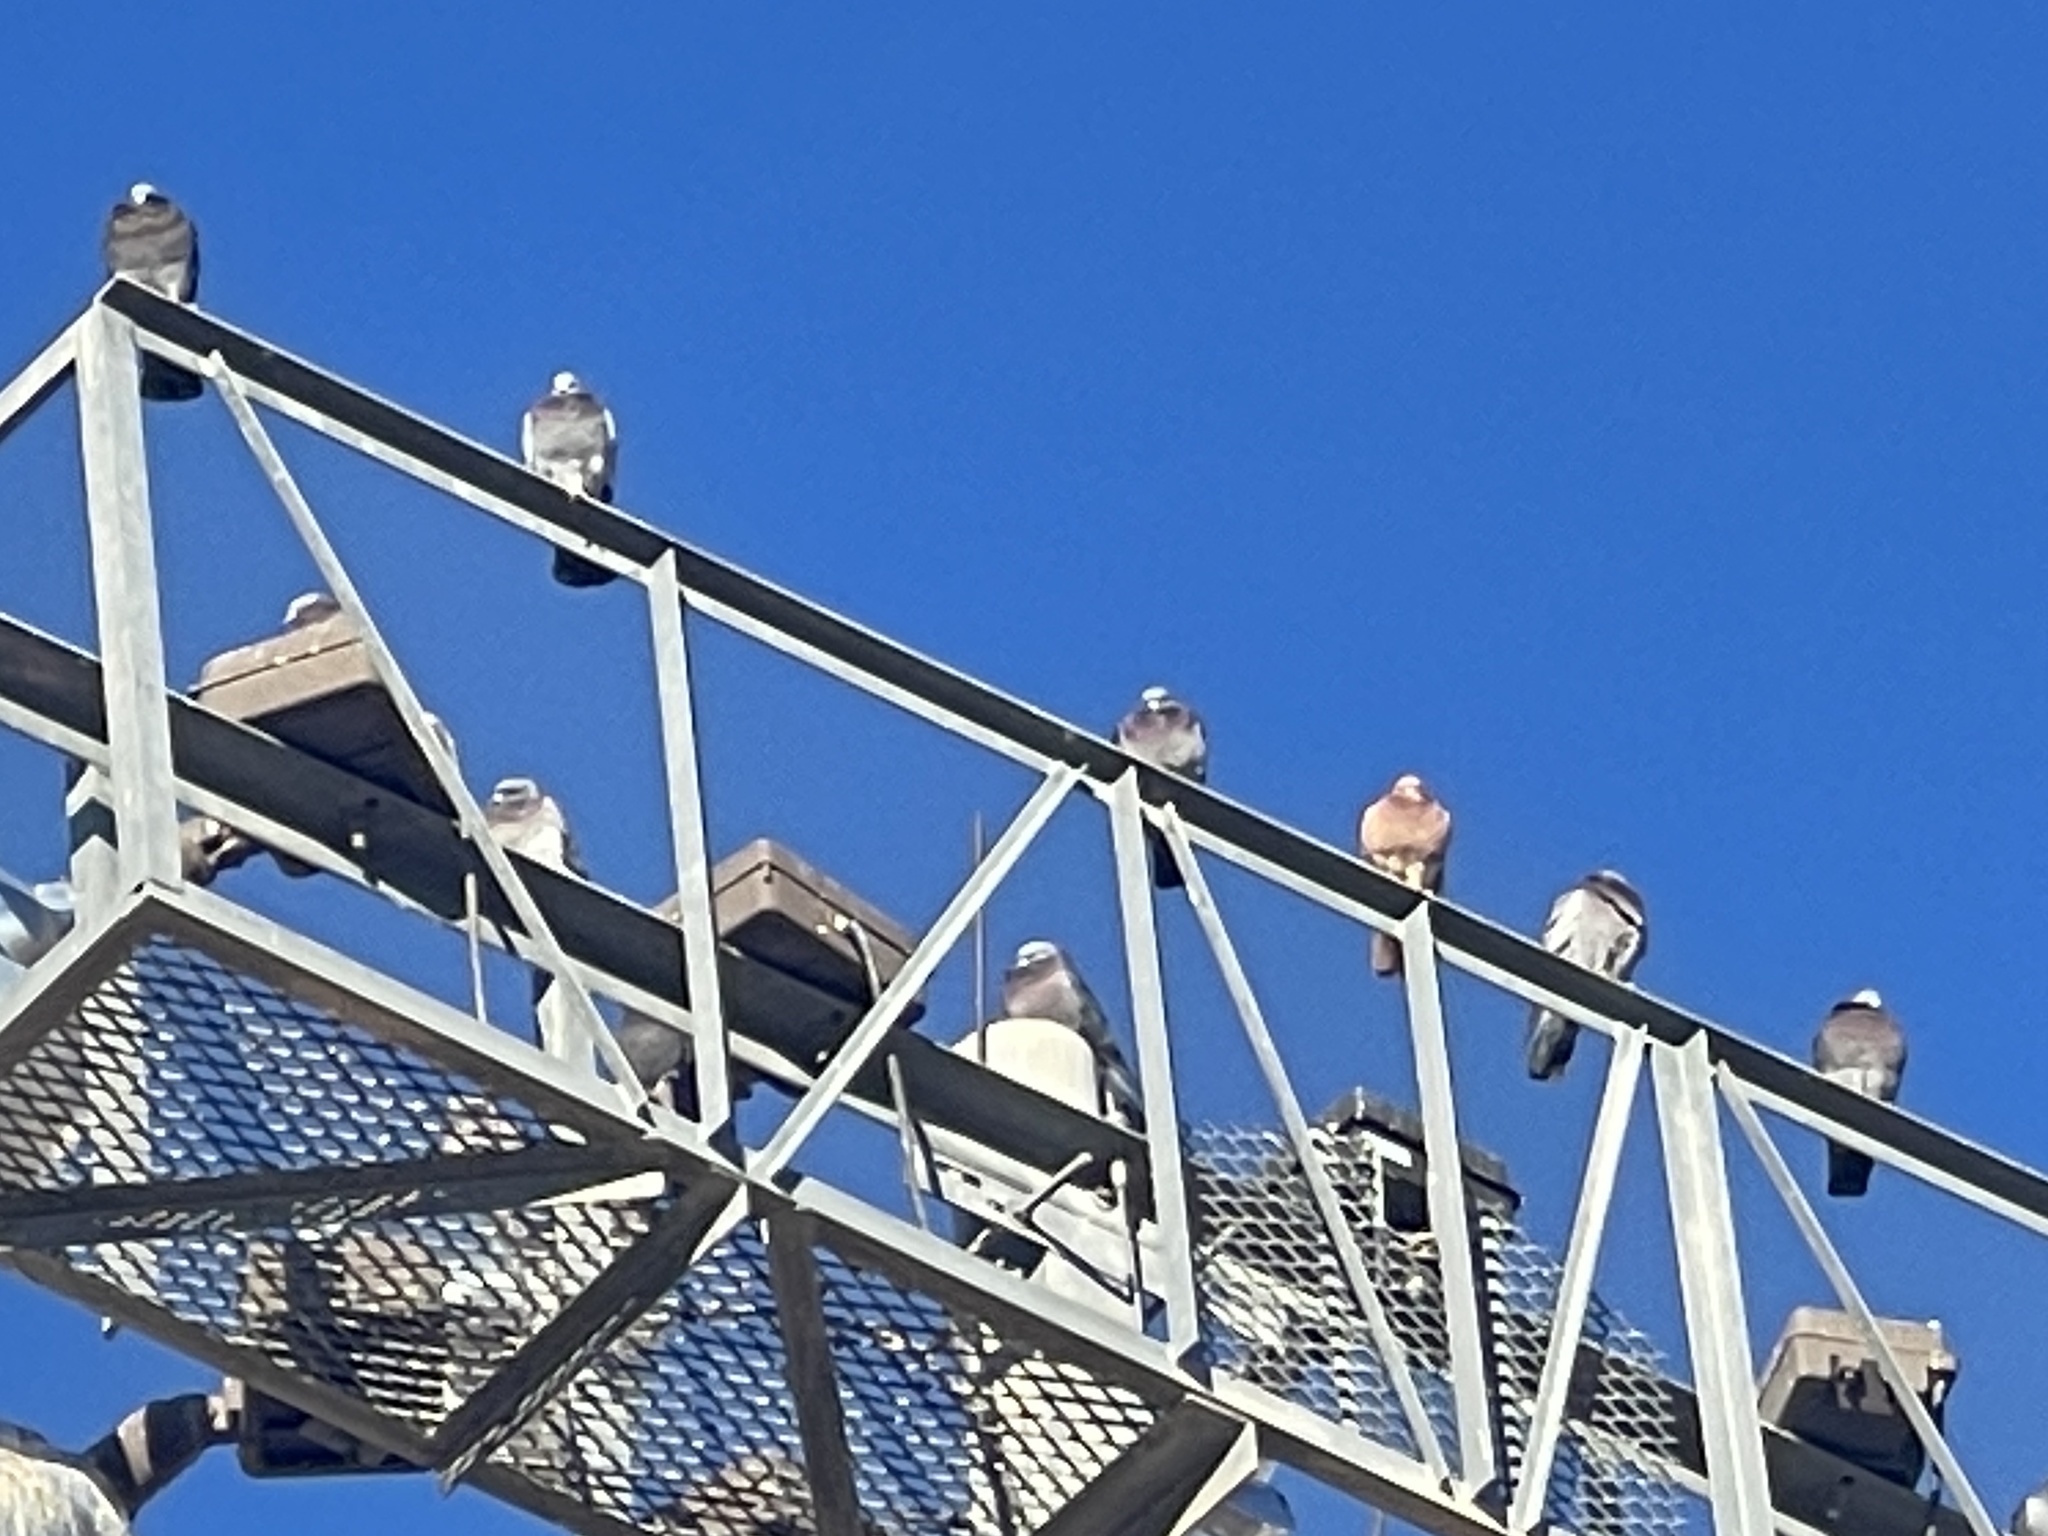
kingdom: Animalia
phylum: Chordata
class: Aves
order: Columbiformes
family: Columbidae
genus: Columba
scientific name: Columba livia
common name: Rock pigeon
